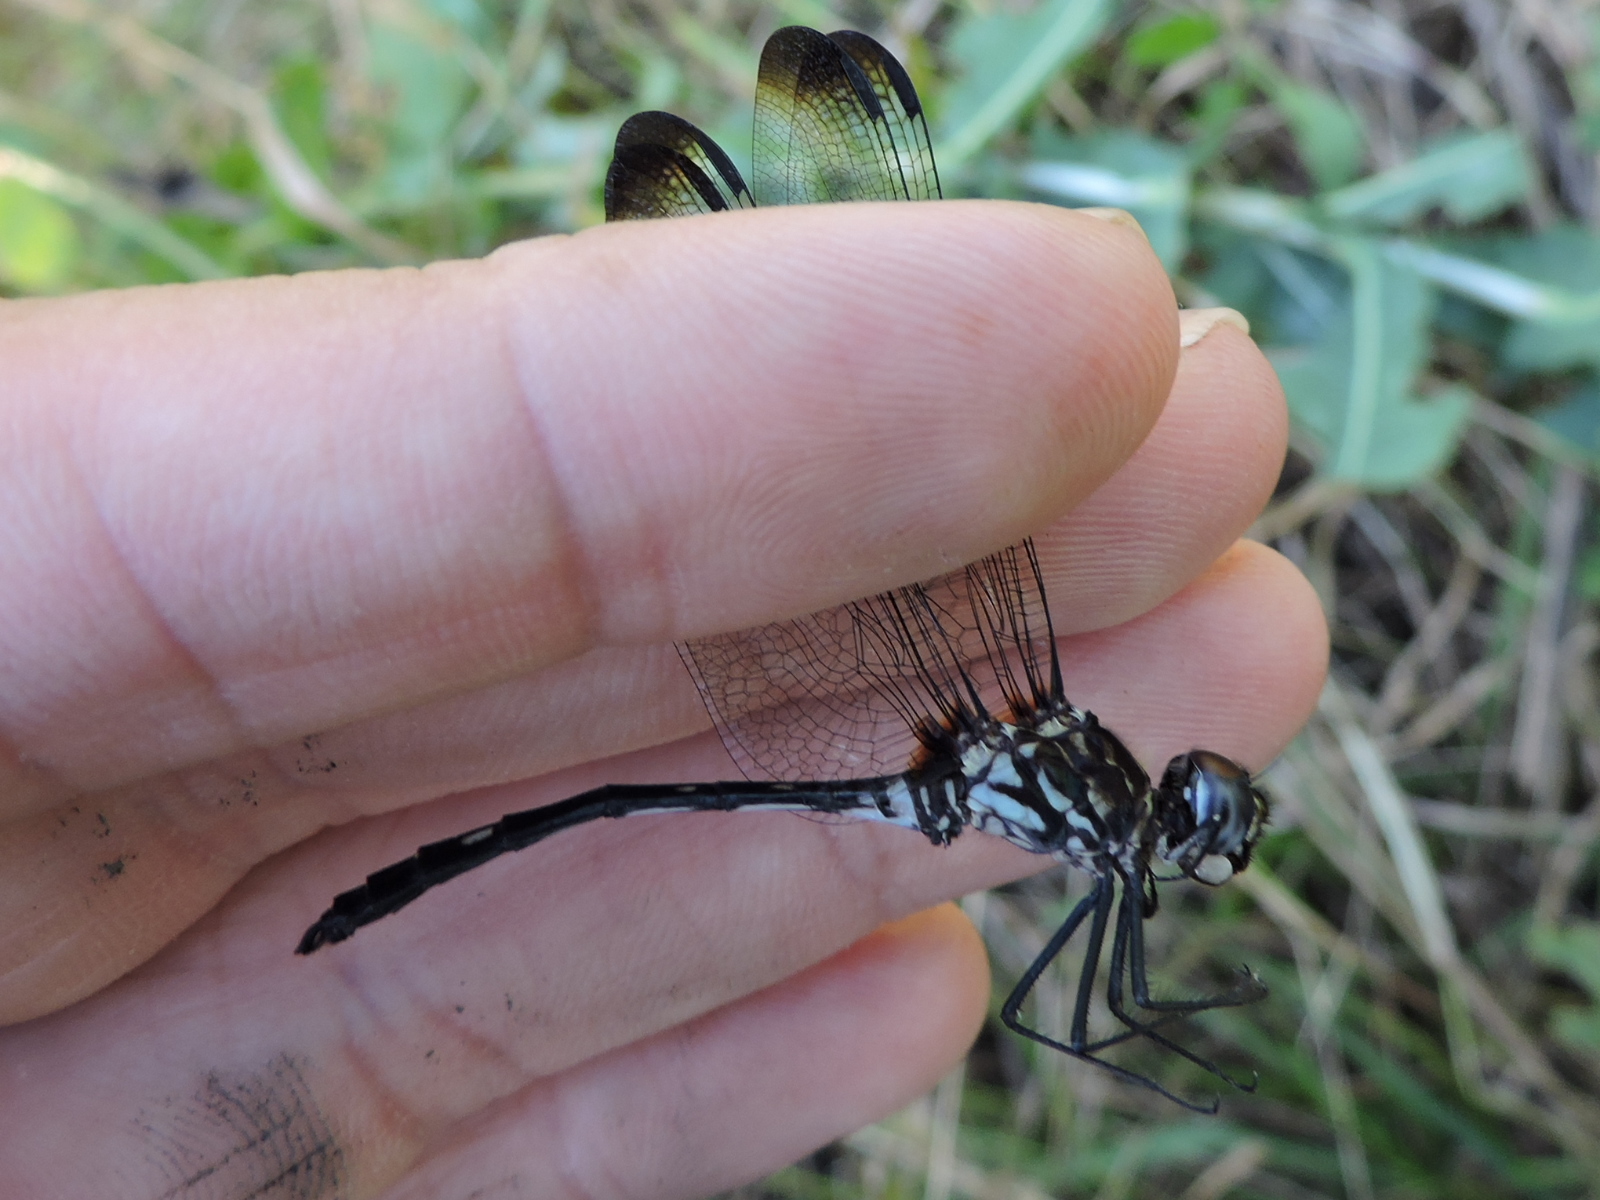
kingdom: Animalia
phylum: Arthropoda
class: Insecta
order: Odonata
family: Libellulidae
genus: Dythemis
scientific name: Dythemis velox
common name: Swift setwing
